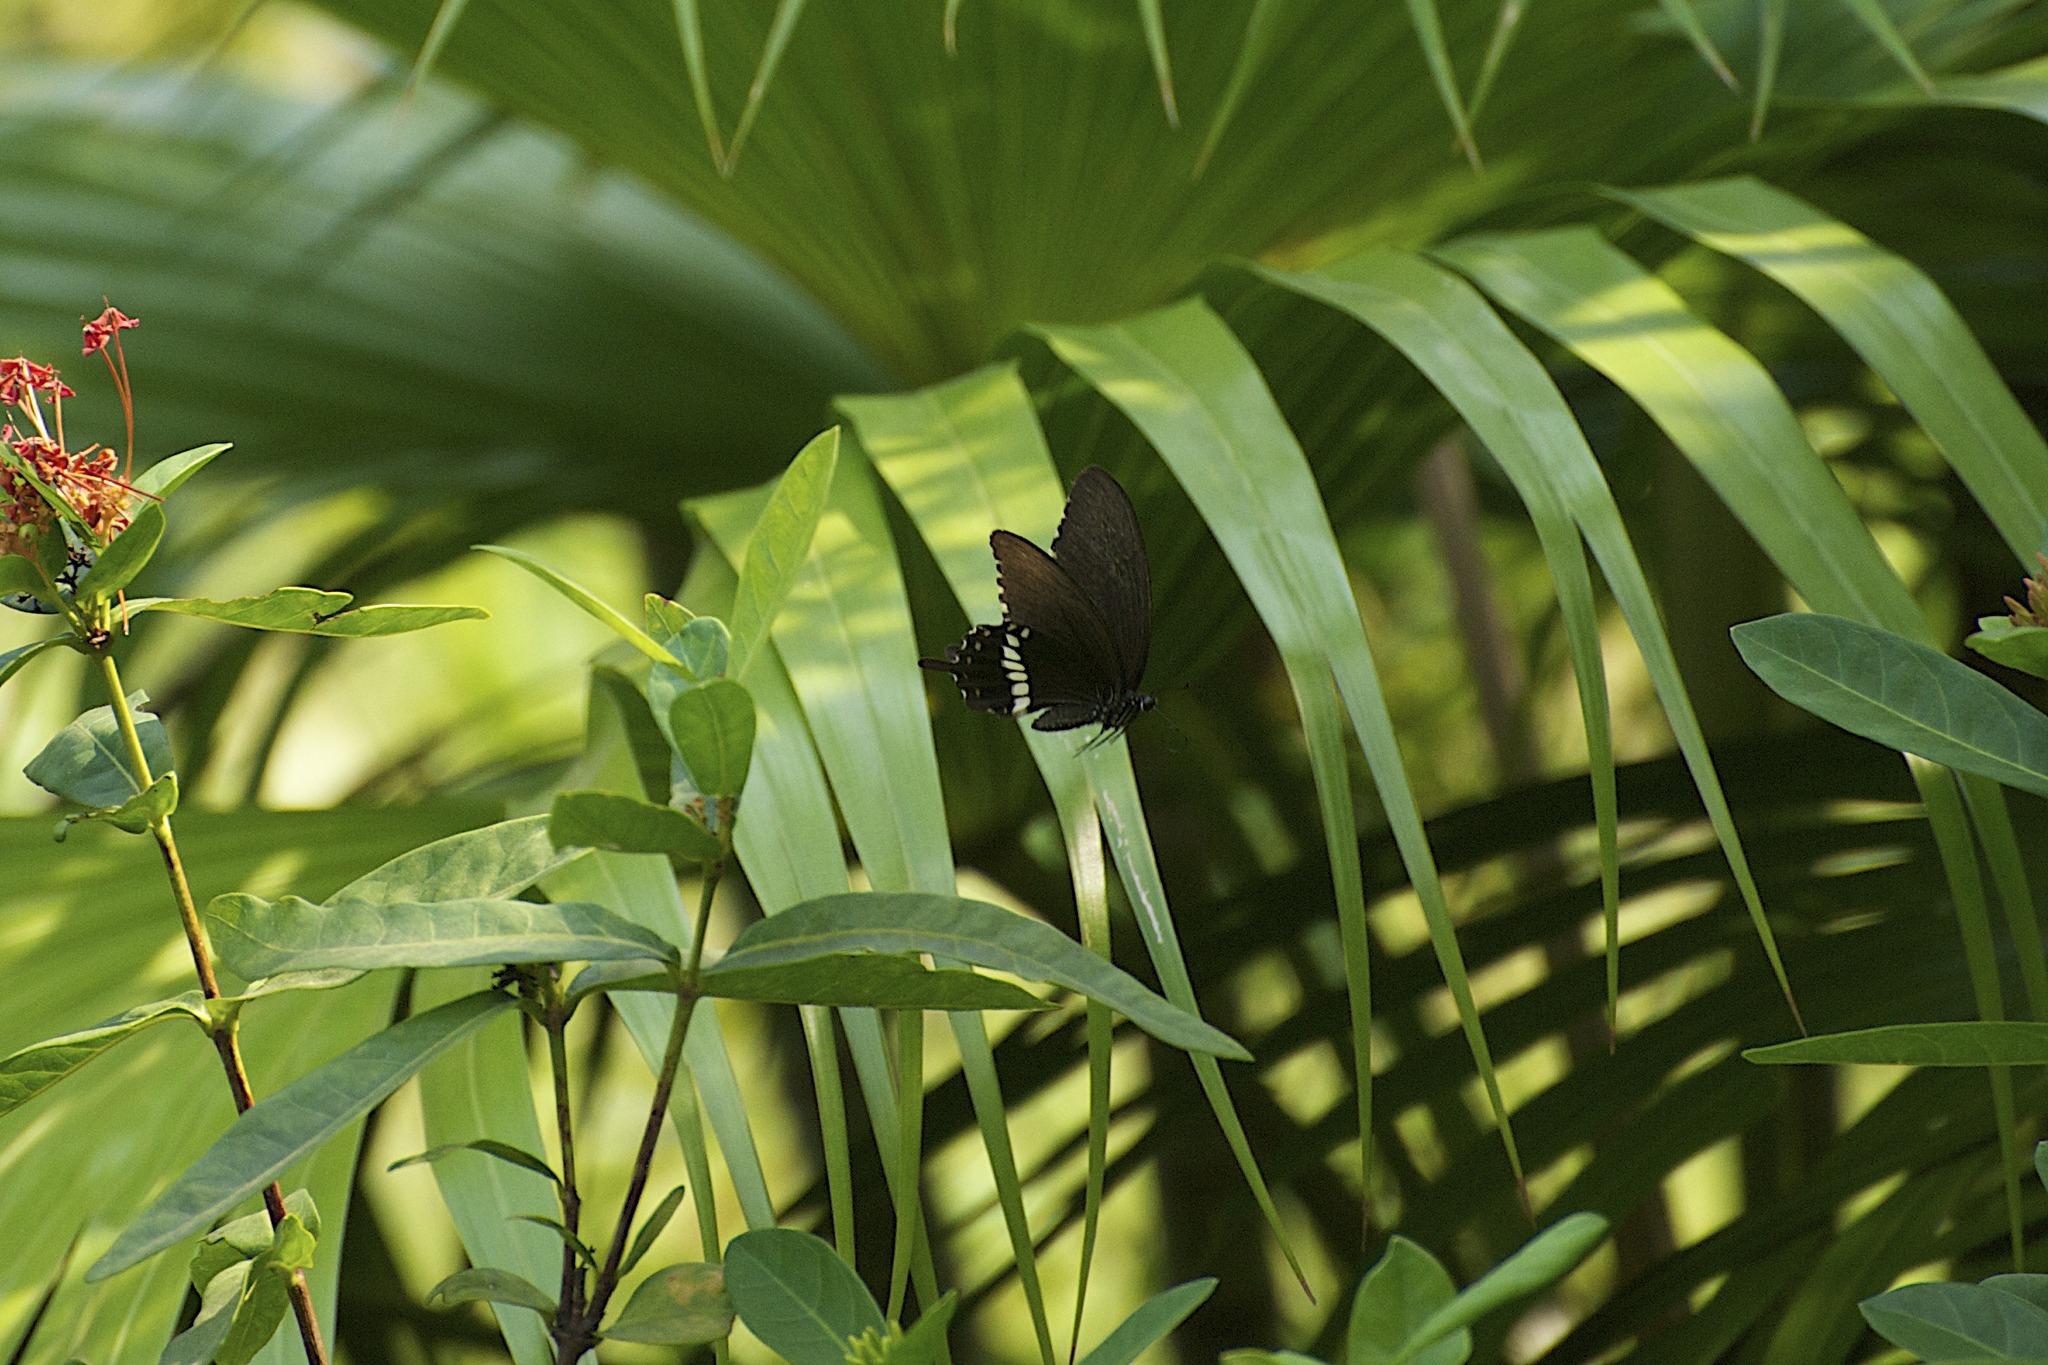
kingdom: Animalia
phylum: Arthropoda
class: Insecta
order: Lepidoptera
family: Papilionidae
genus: Papilio
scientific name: Papilio polytes
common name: Common mormon
